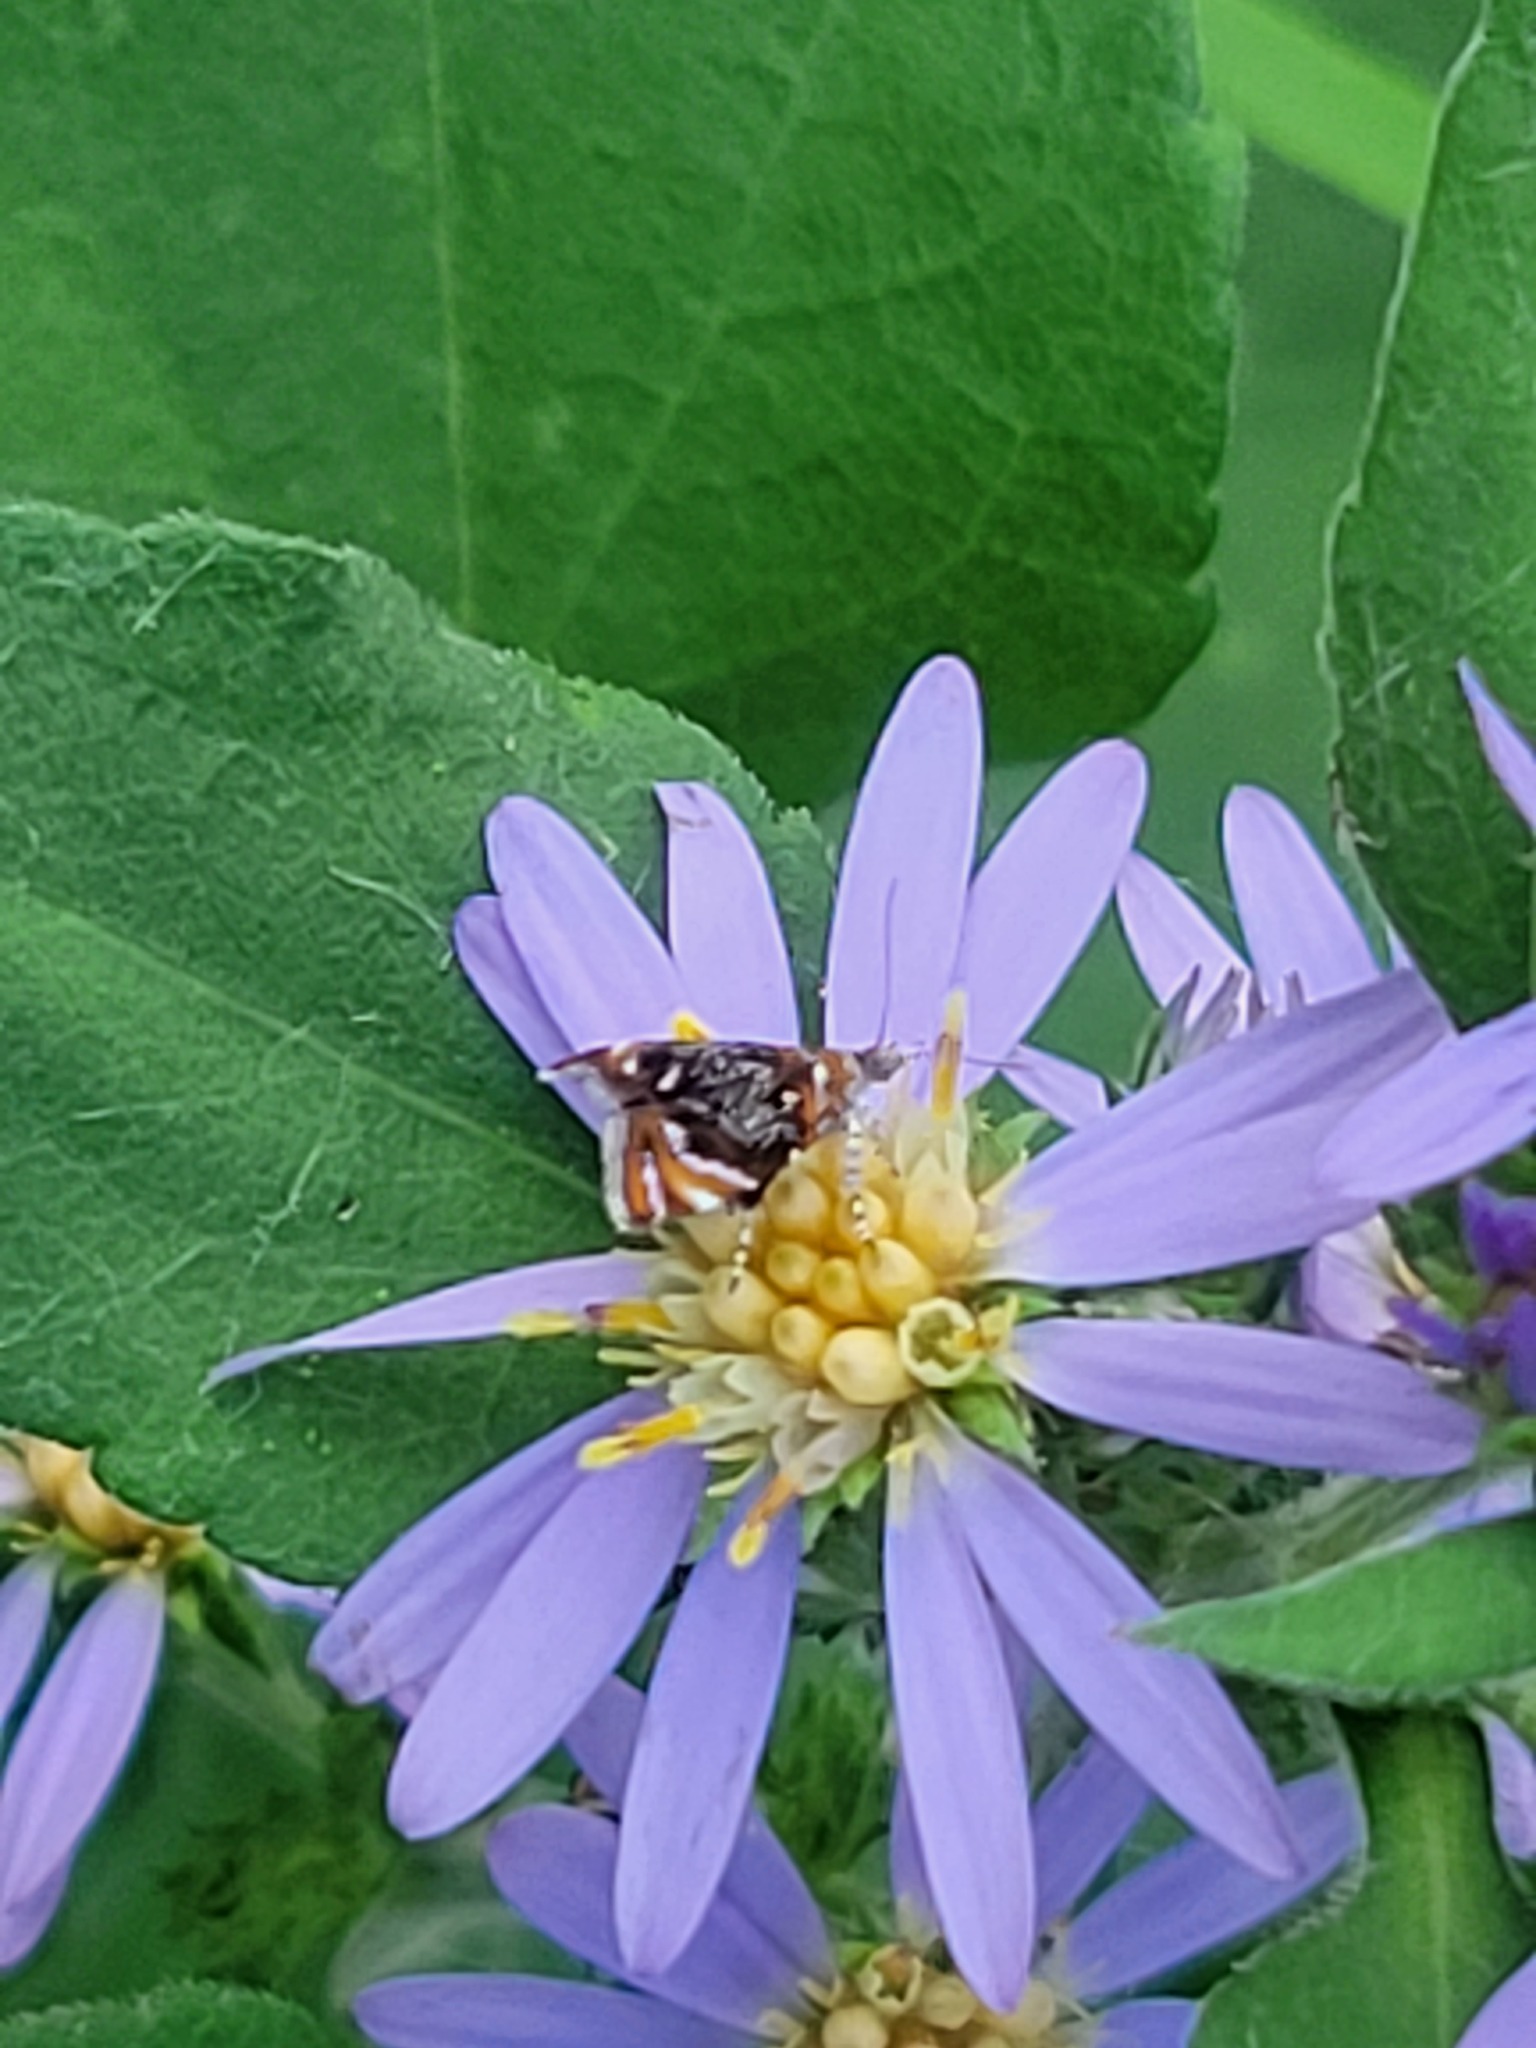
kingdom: Animalia
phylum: Arthropoda
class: Insecta
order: Lepidoptera
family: Choreutidae
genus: Prochoreutis
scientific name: Prochoreutis inflatella
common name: Skullcap skeletonizer moth
